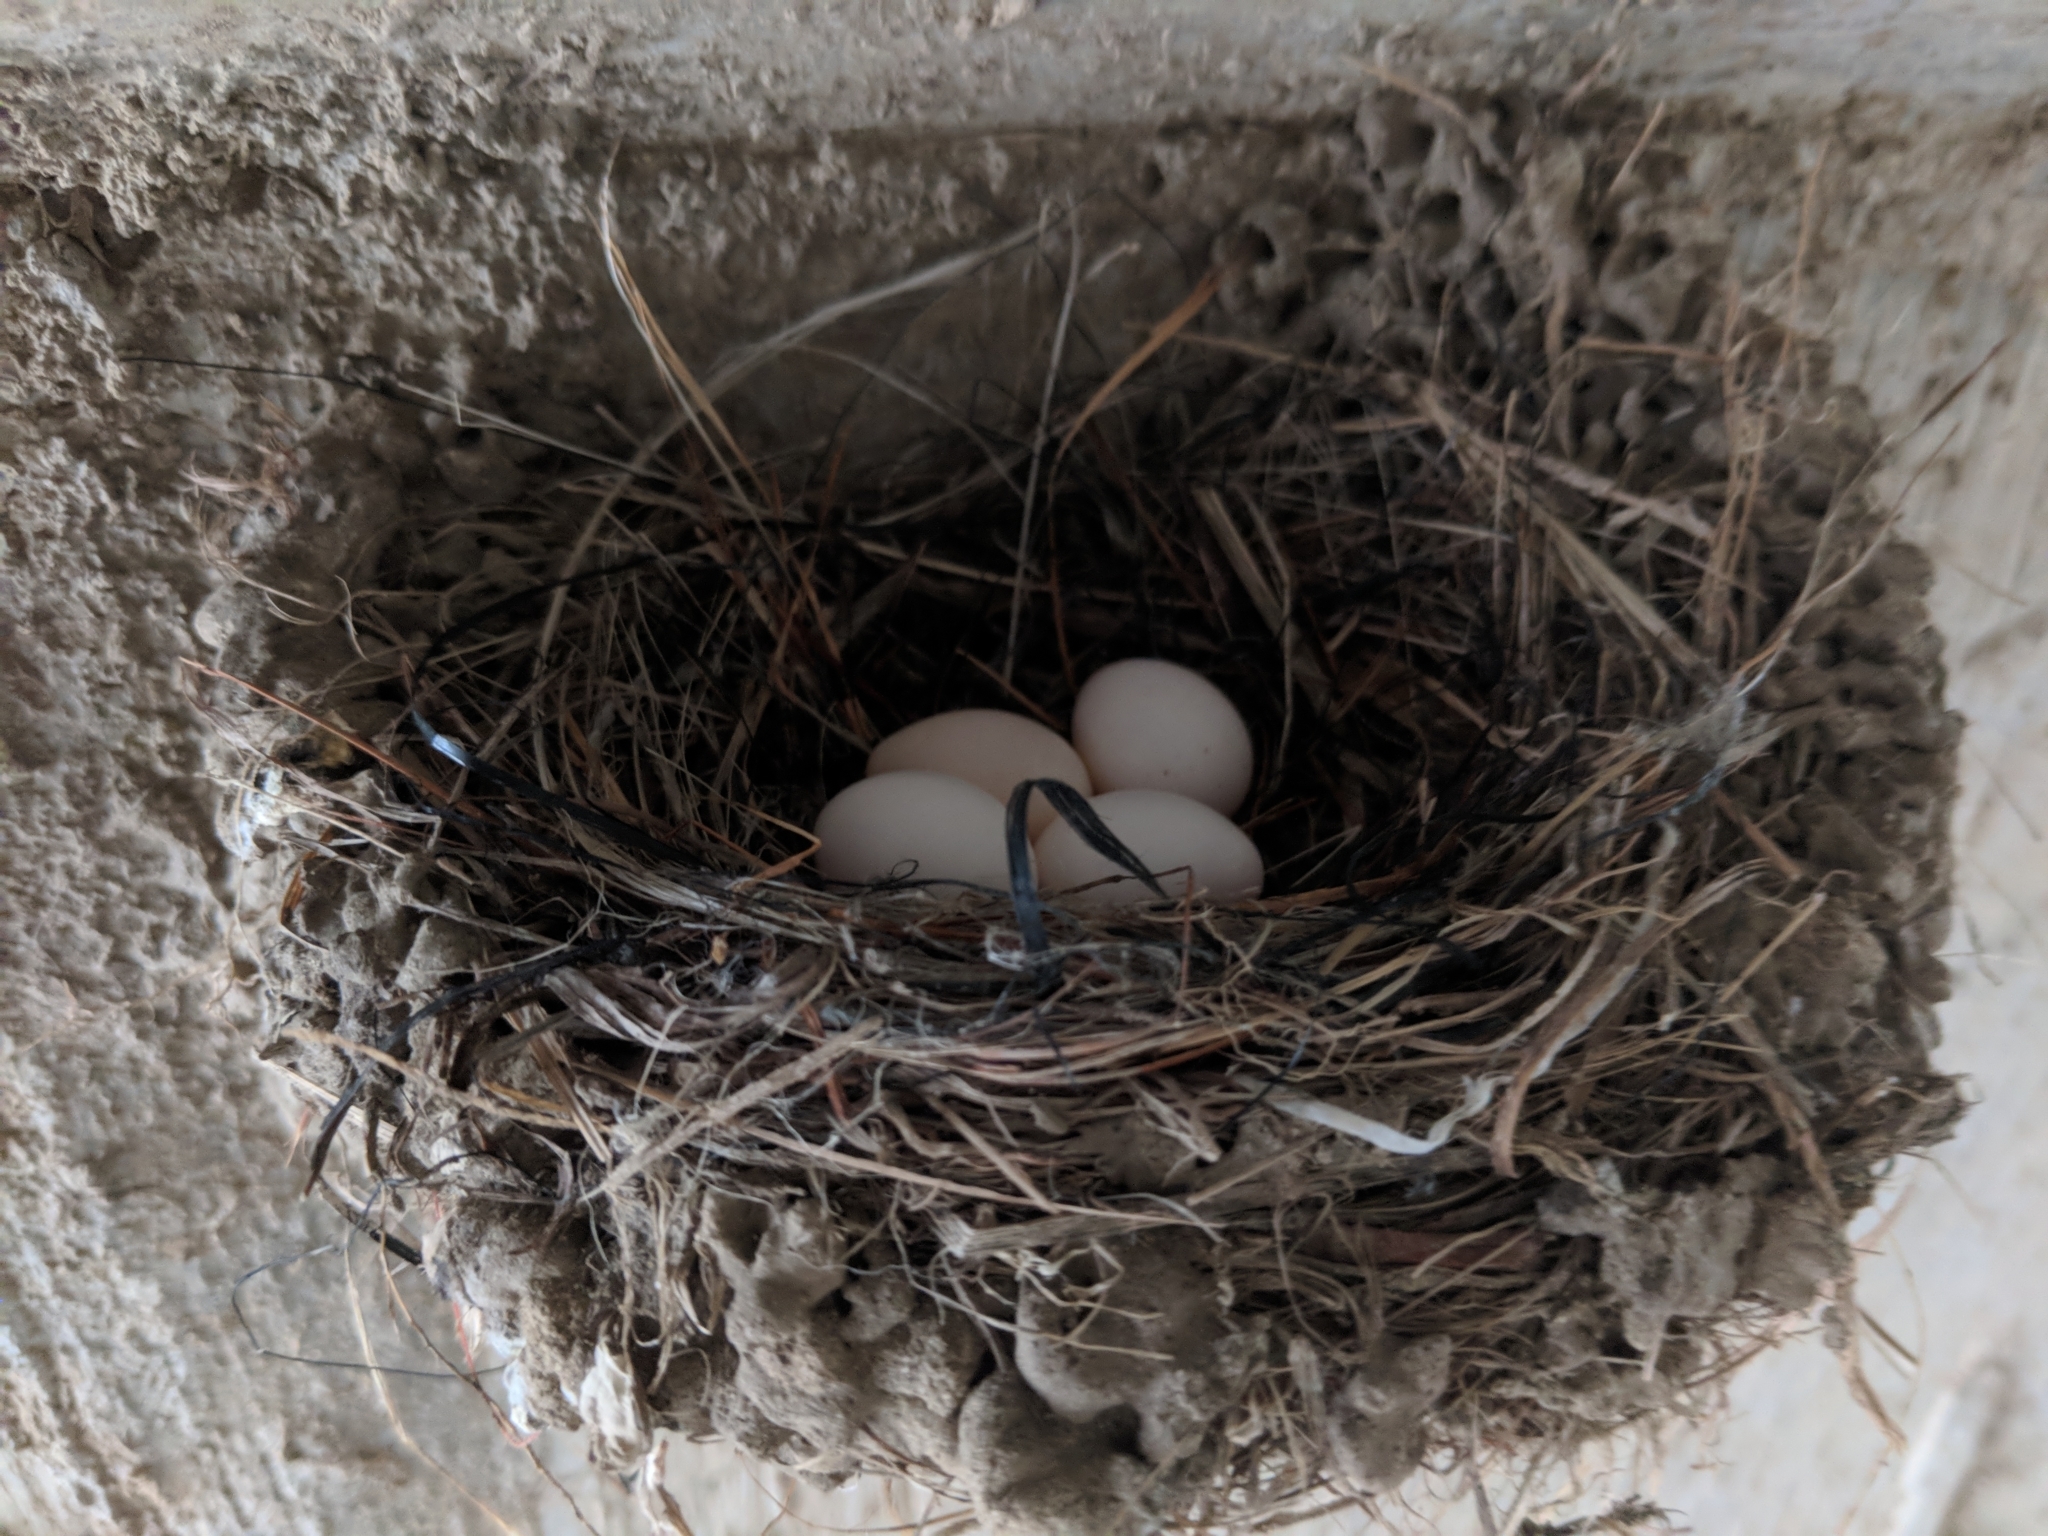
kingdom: Animalia
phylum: Chordata
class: Aves
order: Passeriformes
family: Tyrannidae
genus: Sayornis
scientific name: Sayornis nigricans
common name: Black phoebe
